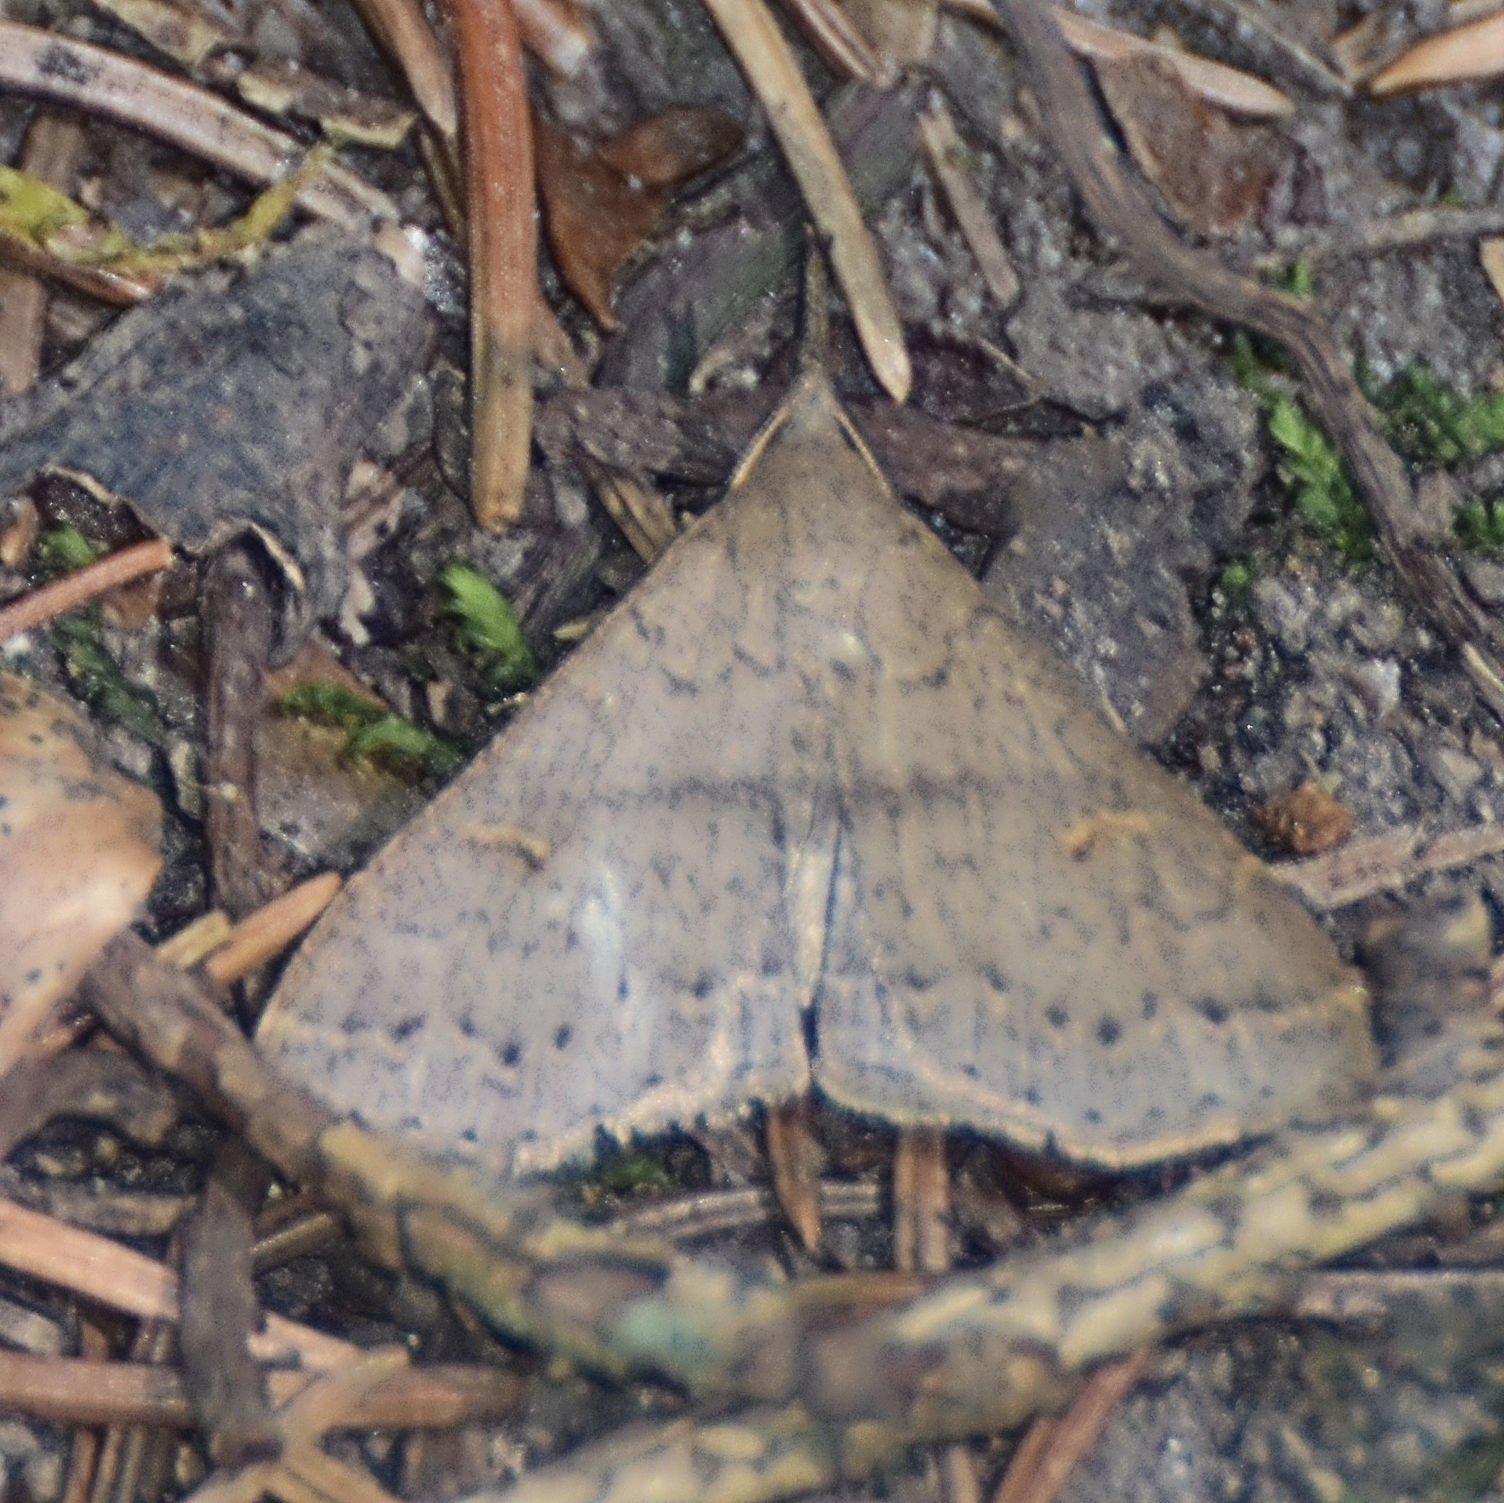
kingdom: Animalia
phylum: Arthropoda
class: Insecta
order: Lepidoptera
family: Erebidae
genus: Renia
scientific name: Renia adspergillus
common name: Speckled renia moth
